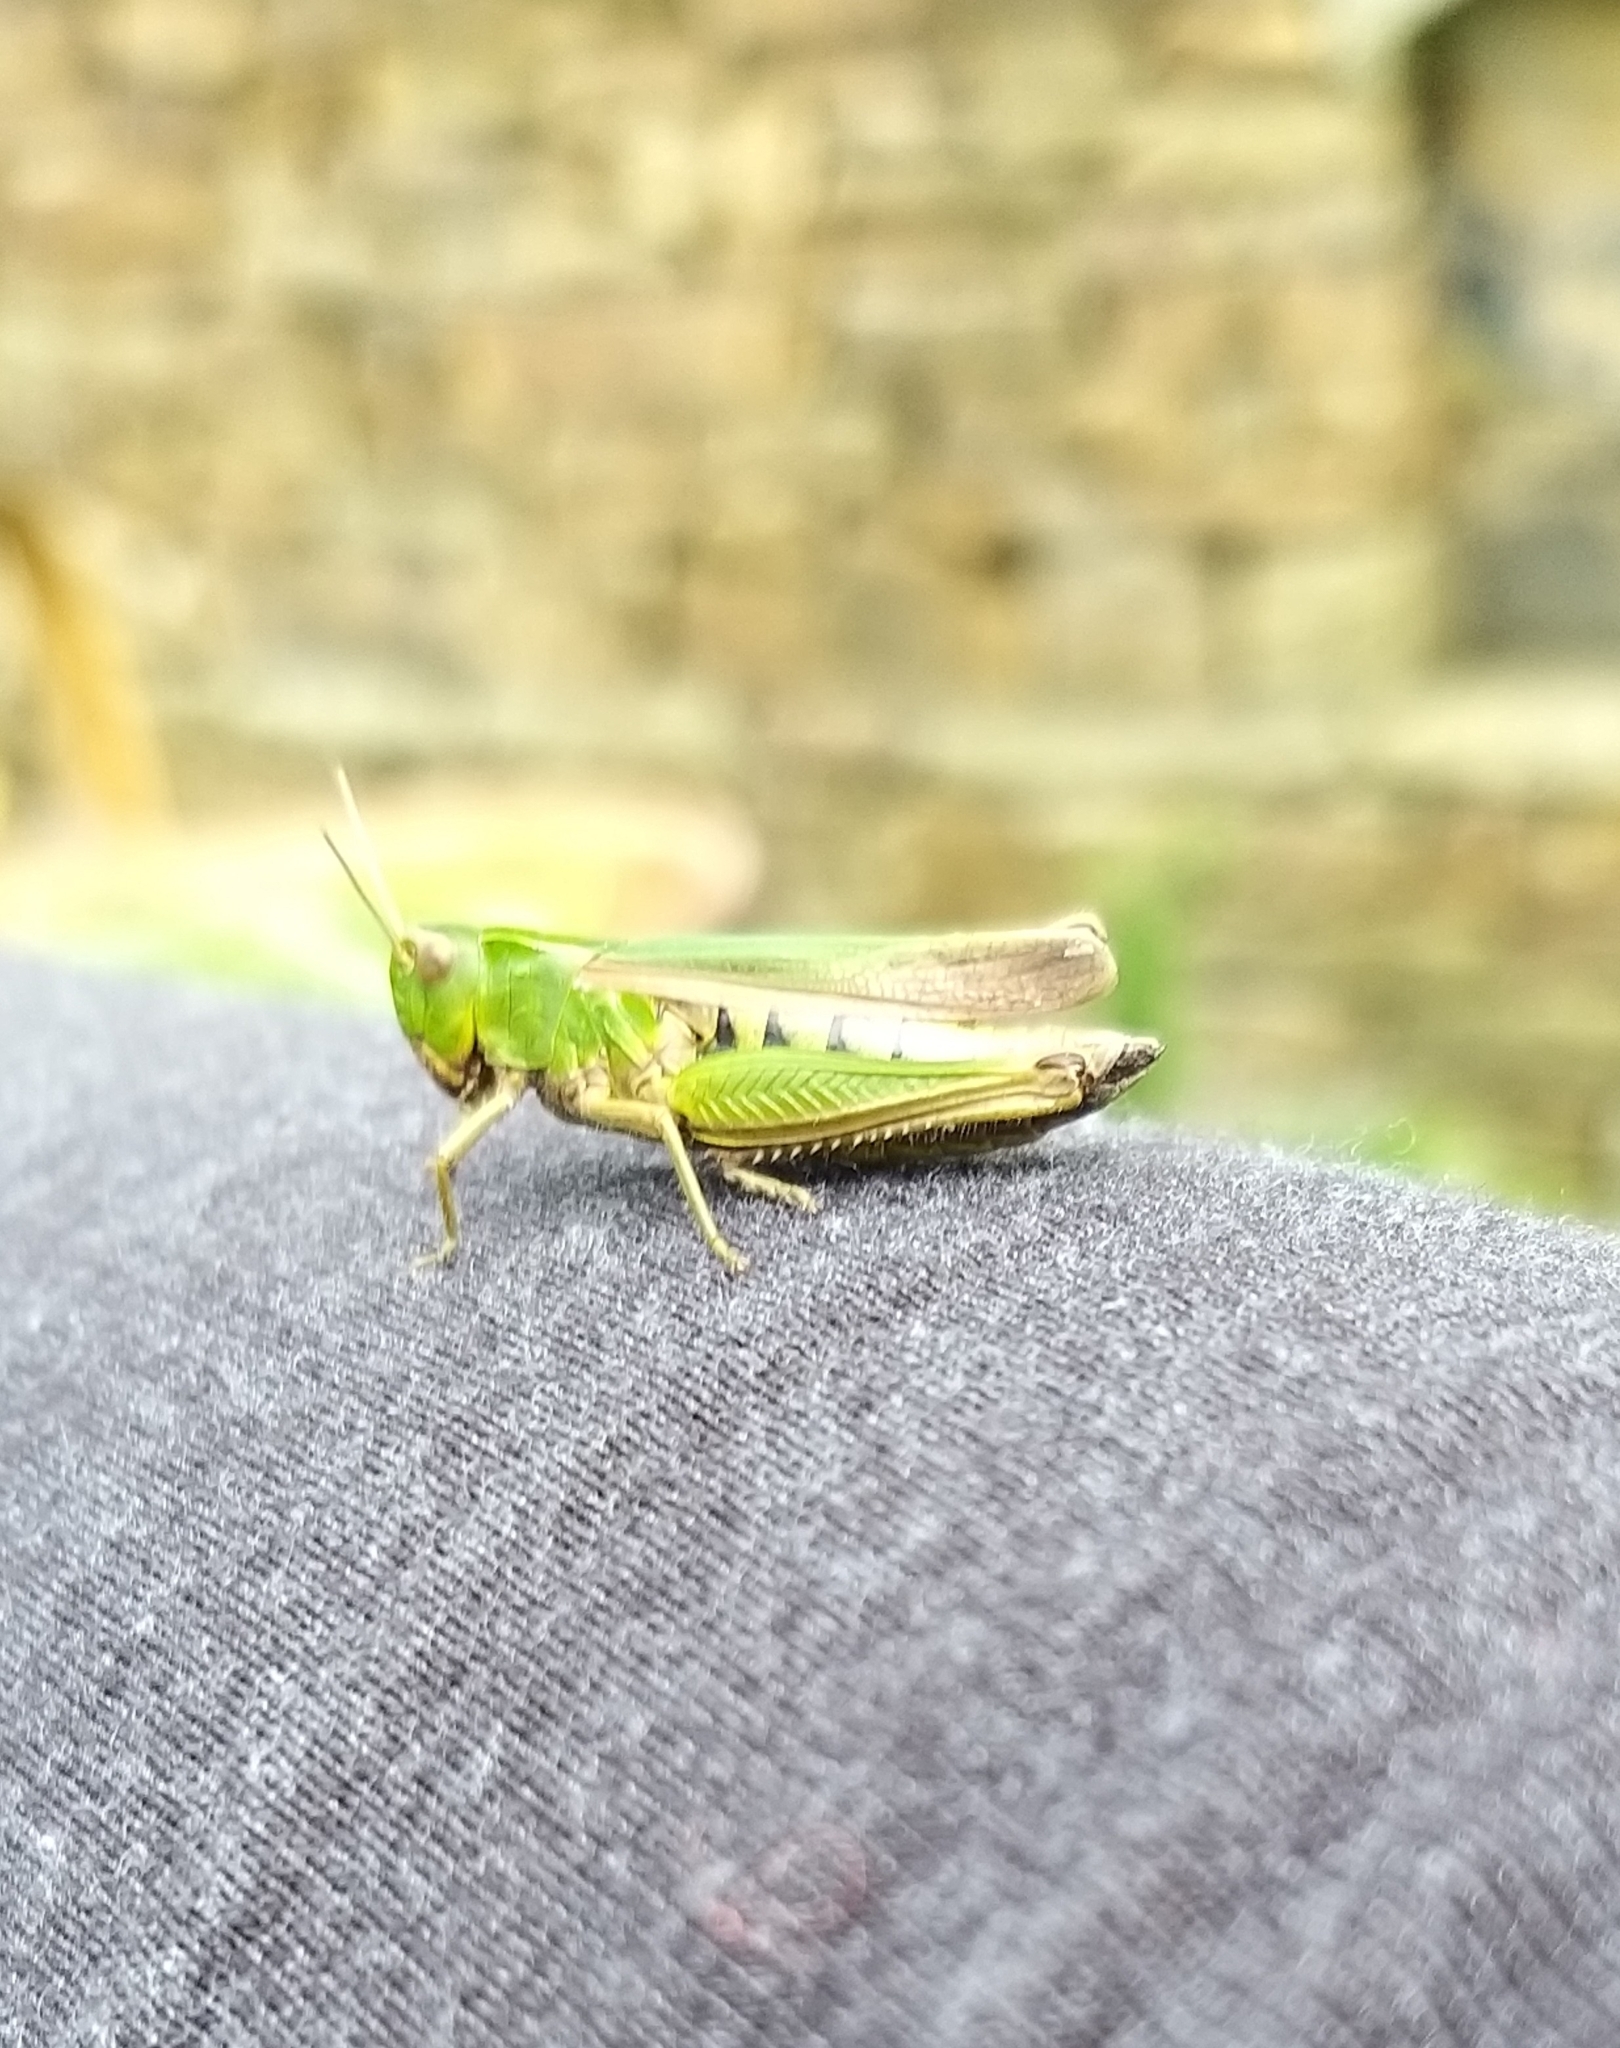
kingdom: Animalia
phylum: Arthropoda
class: Insecta
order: Orthoptera
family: Acrididae
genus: Omocestus
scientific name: Omocestus viridulus
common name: Common green grasshopper
